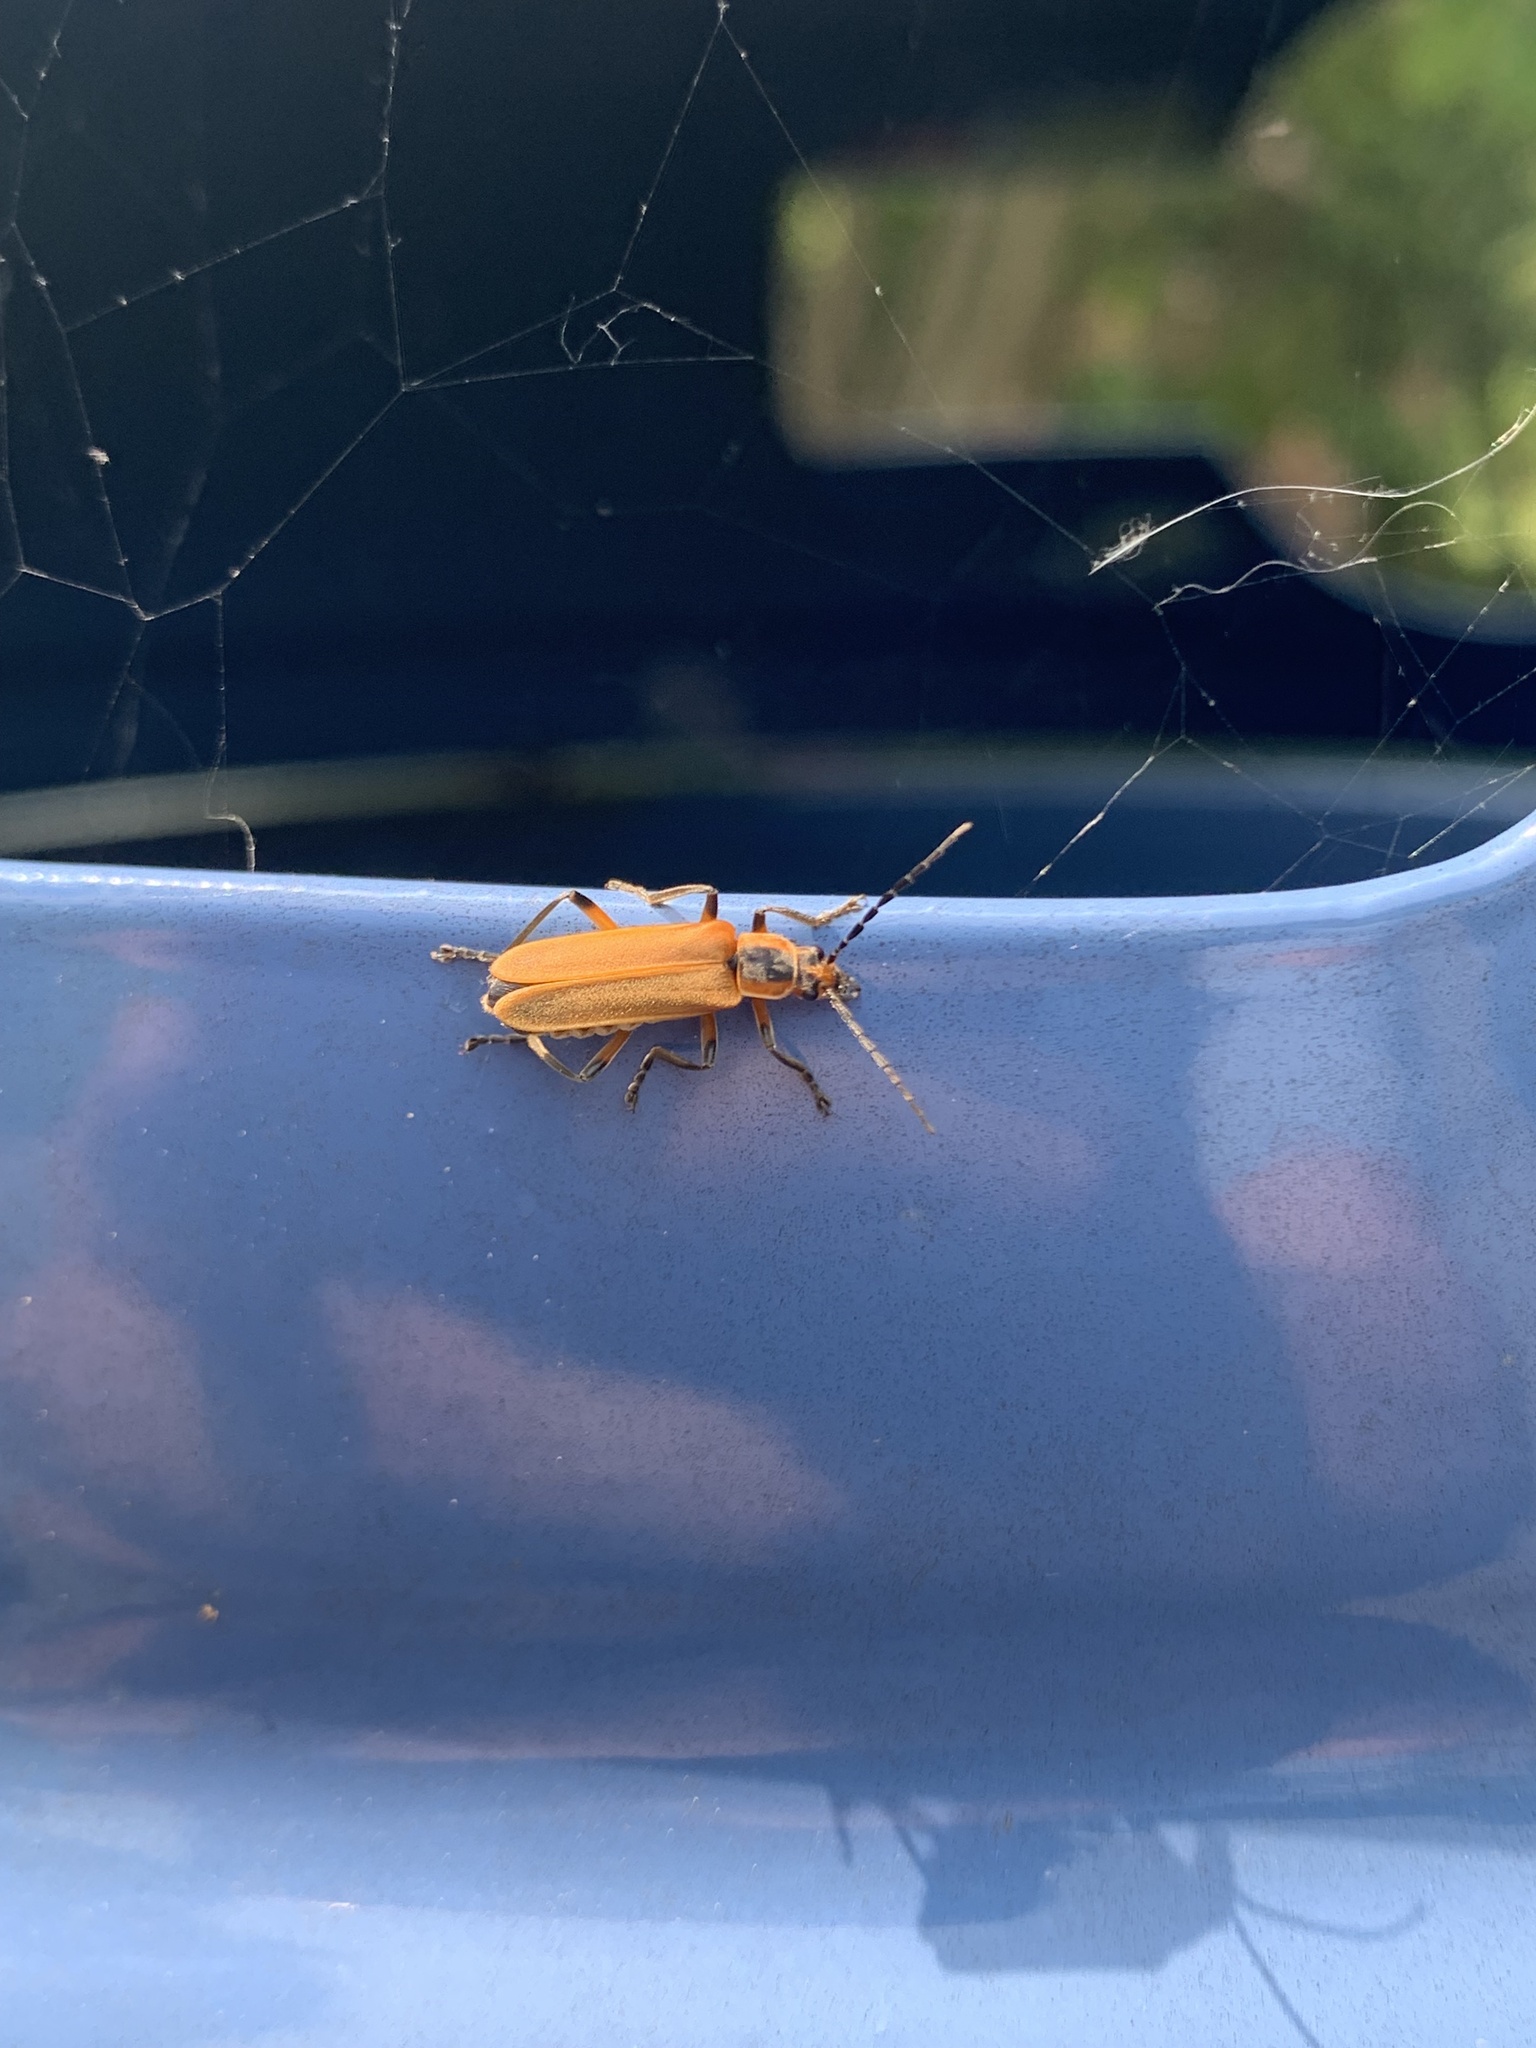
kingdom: Animalia
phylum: Arthropoda
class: Insecta
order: Coleoptera
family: Cantharidae
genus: Chauliognathus
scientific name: Chauliognathus marginatus
